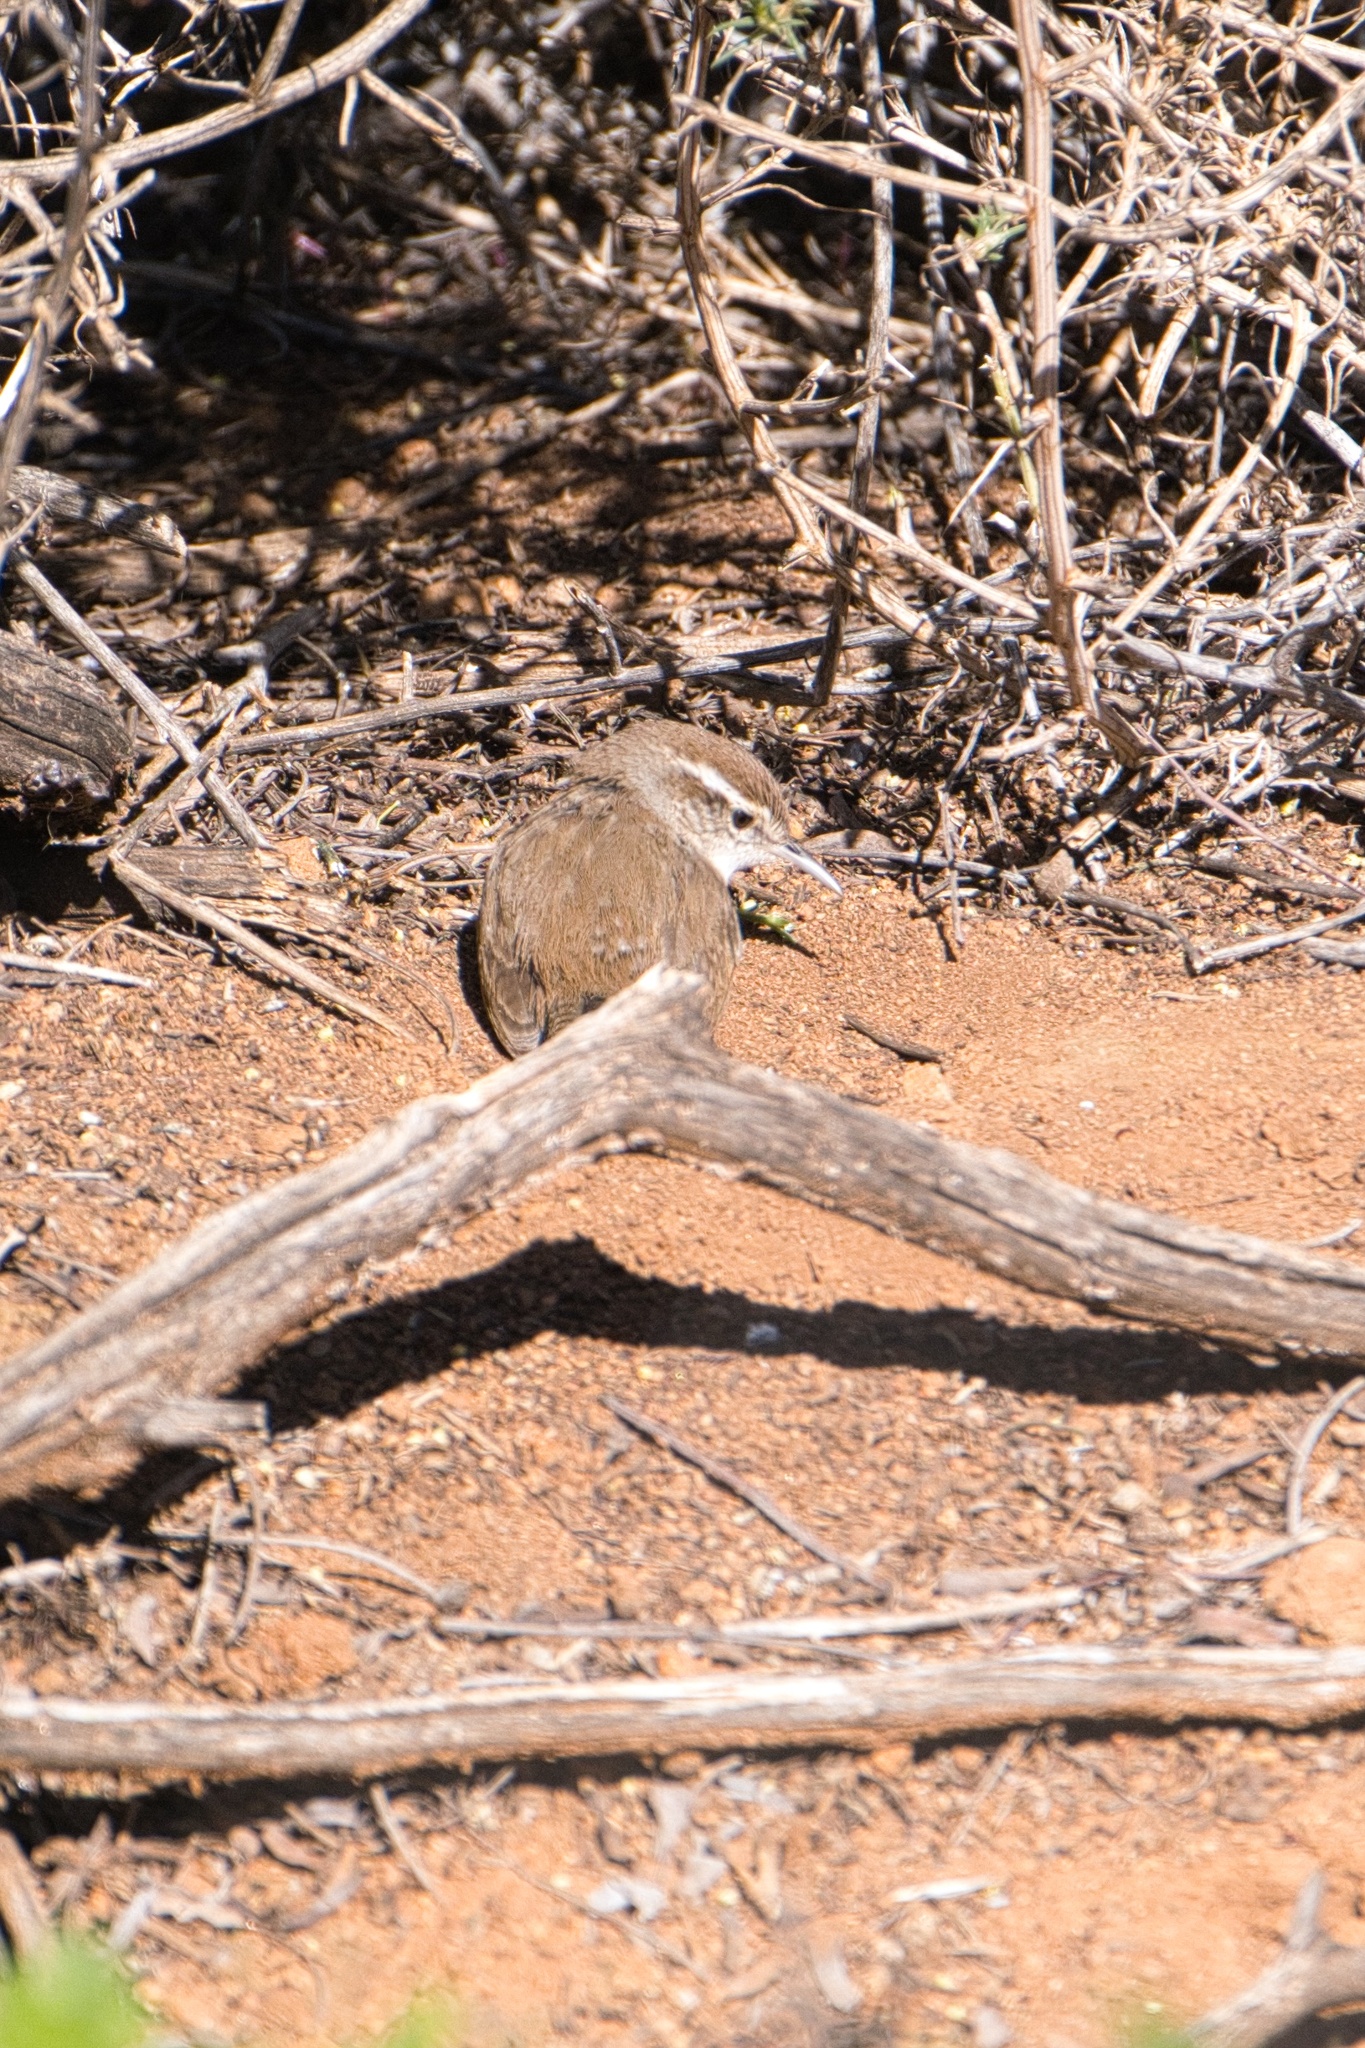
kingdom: Animalia
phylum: Chordata
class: Aves
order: Passeriformes
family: Troglodytidae
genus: Thryomanes
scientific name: Thryomanes bewickii
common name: Bewick's wren
